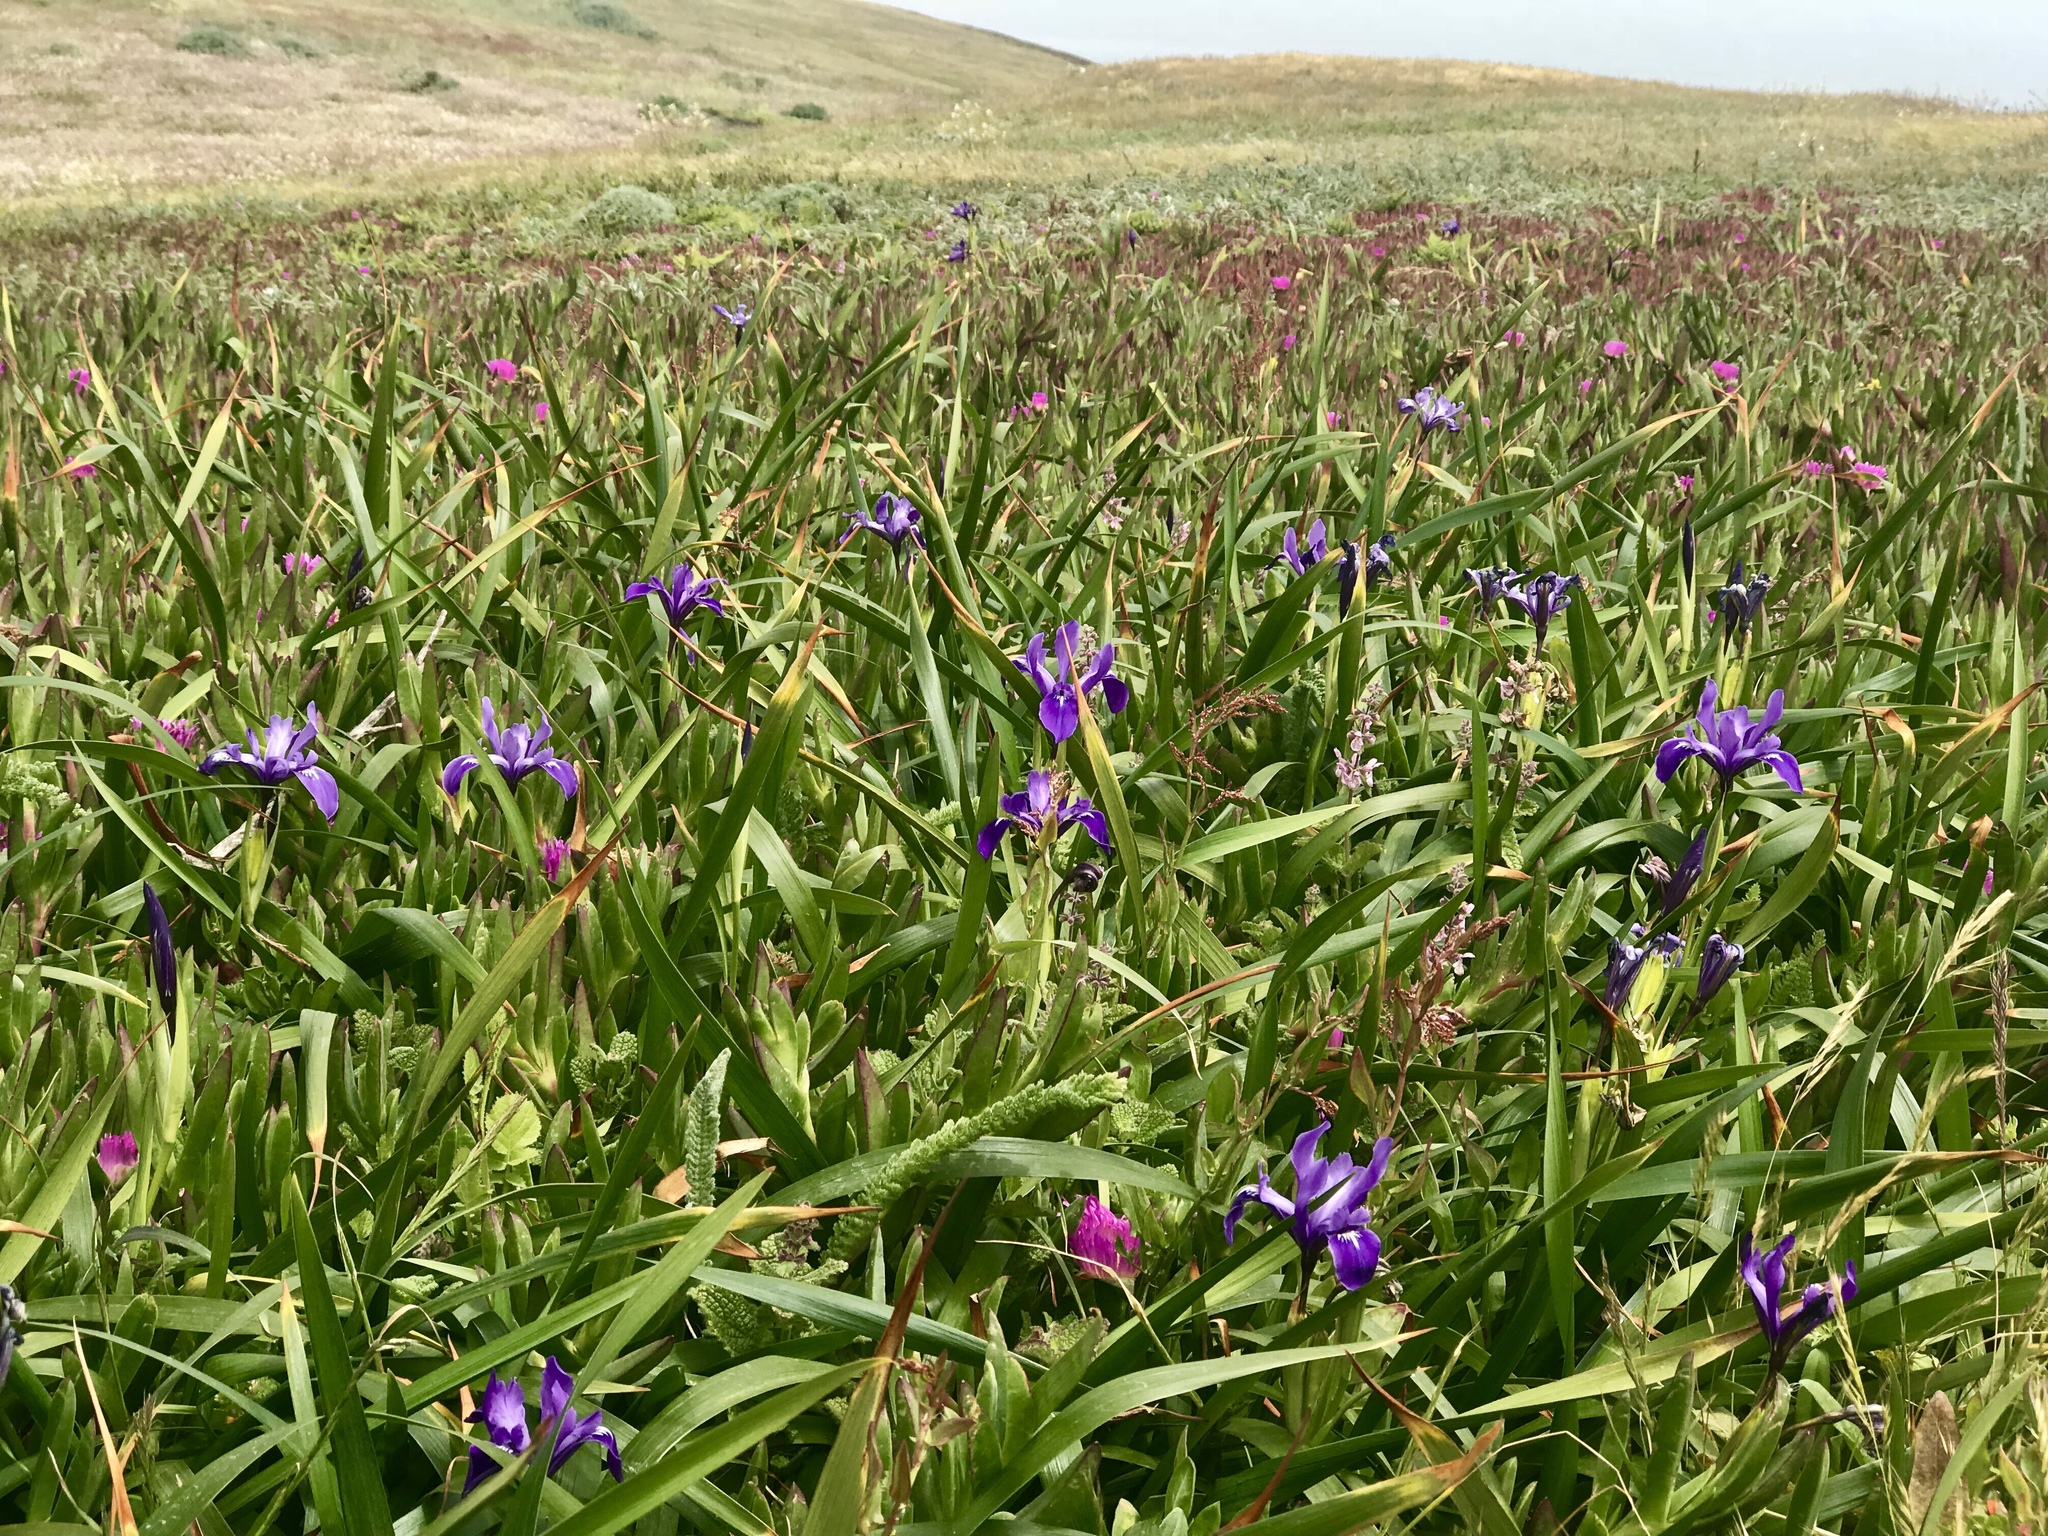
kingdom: Plantae
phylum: Tracheophyta
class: Liliopsida
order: Asparagales
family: Iridaceae
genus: Iris
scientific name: Iris douglasiana
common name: Marin iris
